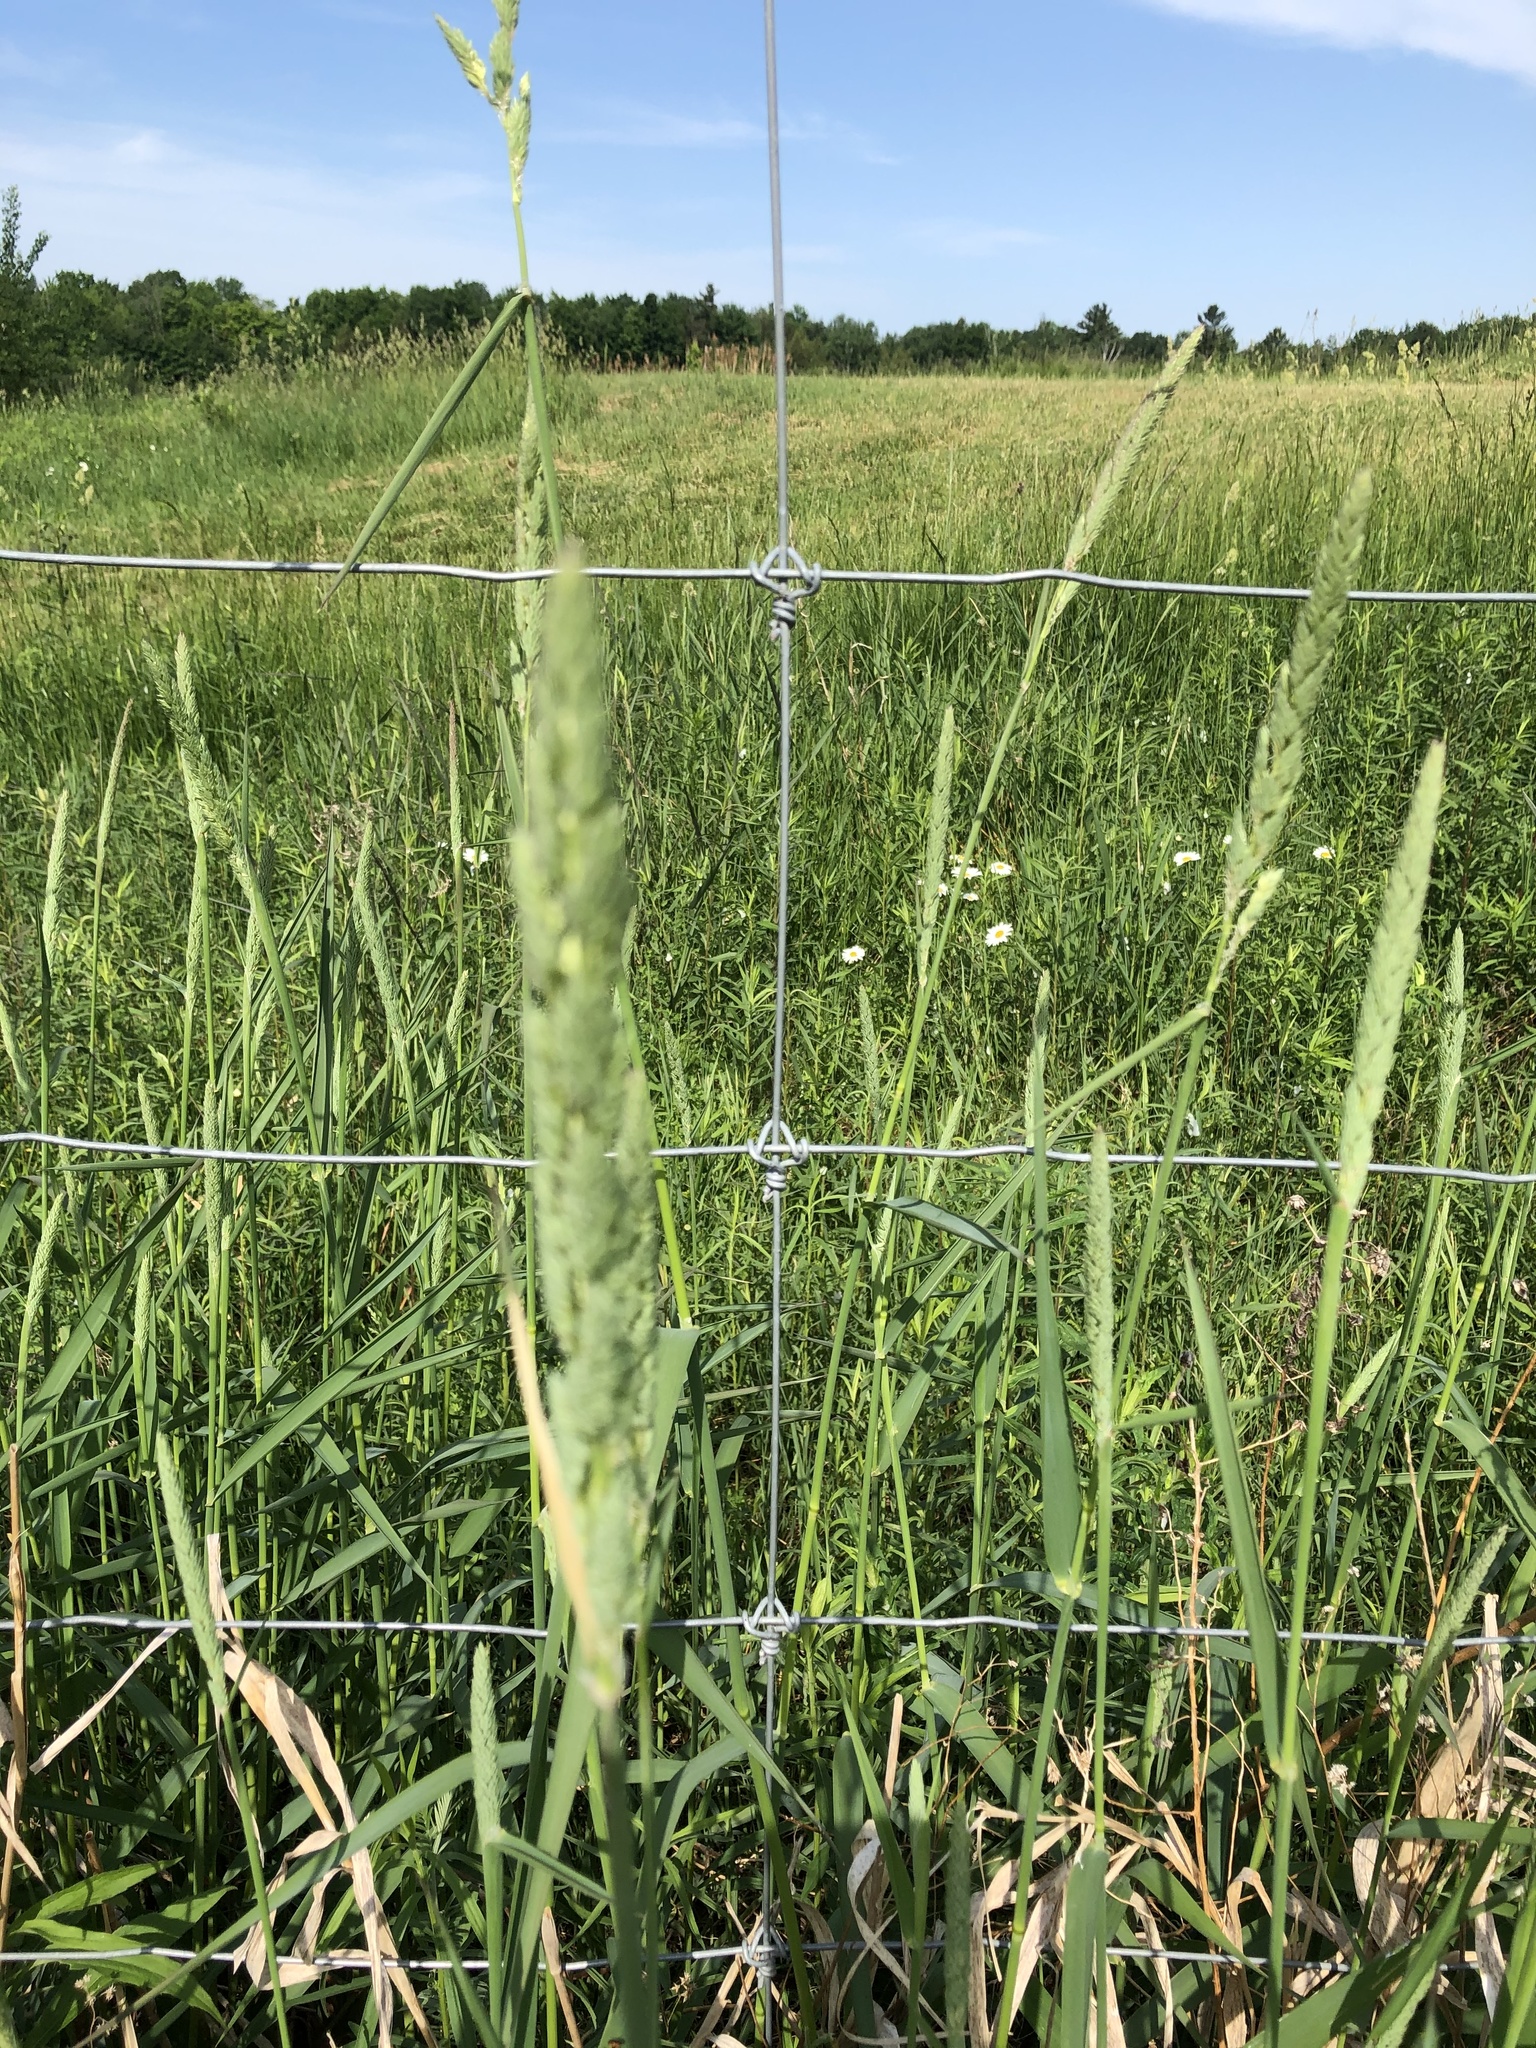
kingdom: Plantae
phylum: Tracheophyta
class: Liliopsida
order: Poales
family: Poaceae
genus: Phalaris
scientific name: Phalaris arundinacea
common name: Reed canary-grass
